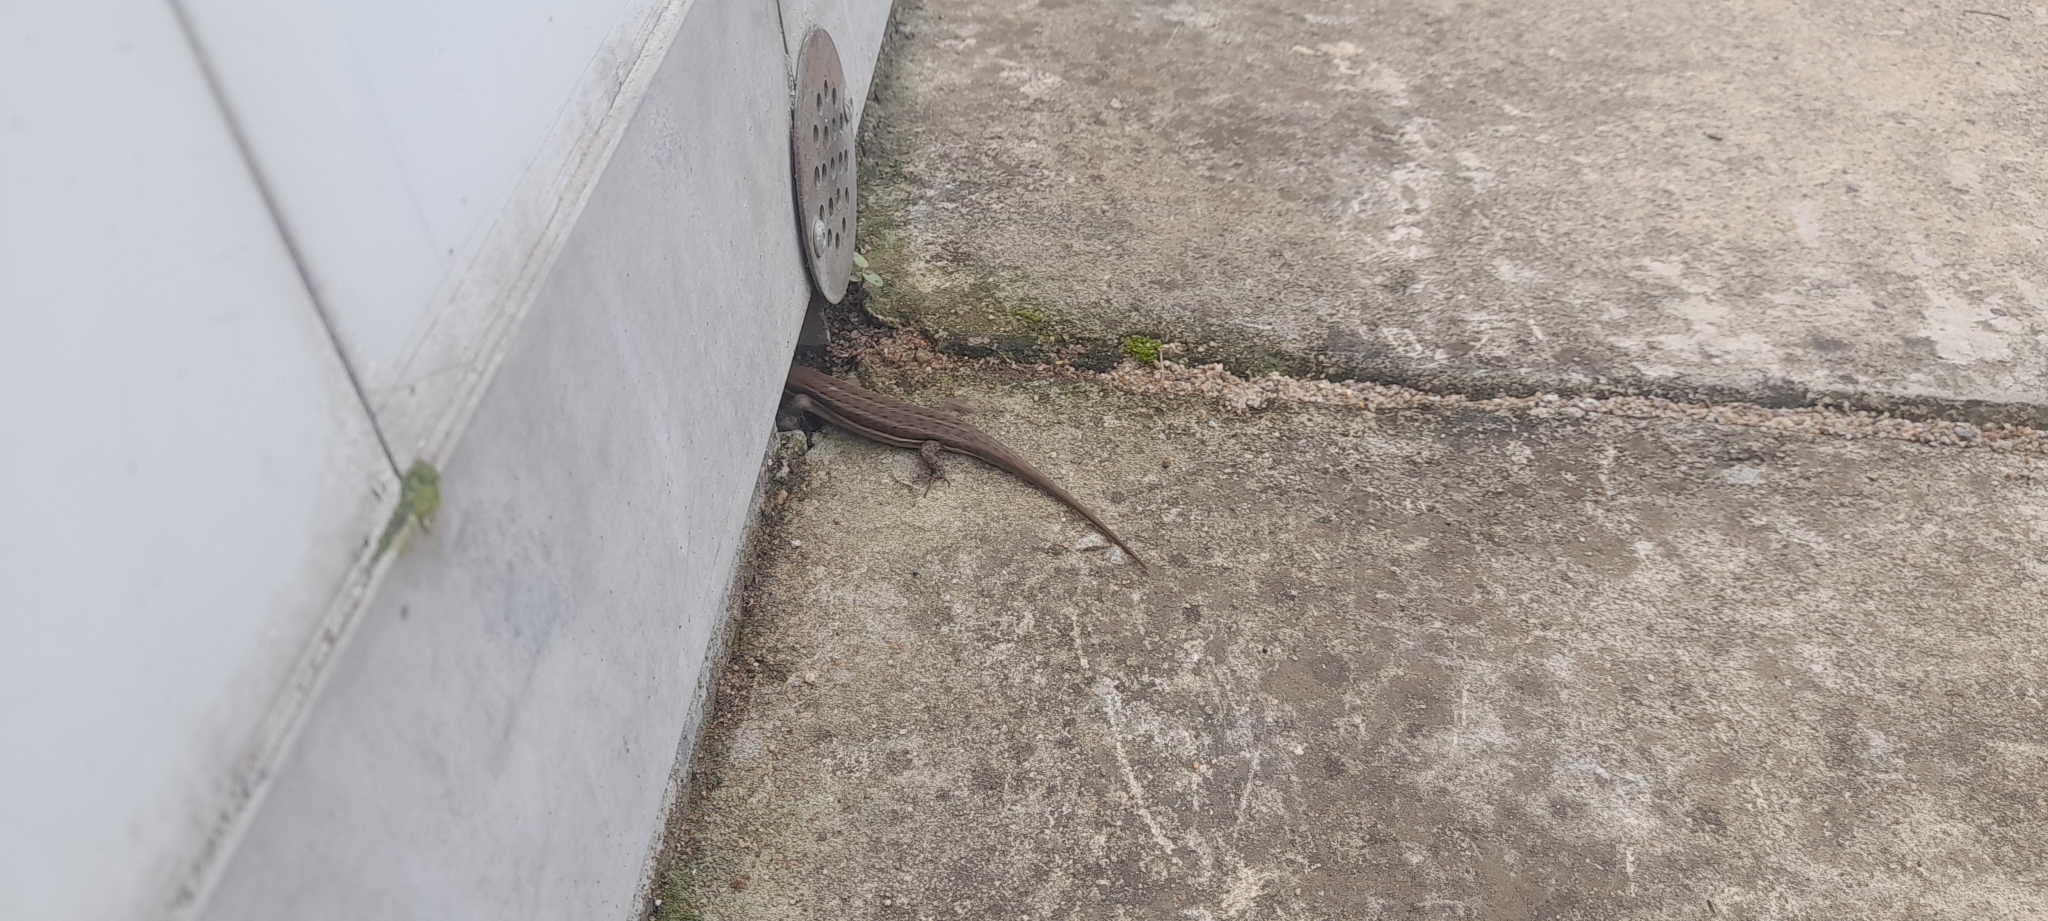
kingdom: Animalia
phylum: Chordata
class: Squamata
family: Scincidae
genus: Trachylepis
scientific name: Trachylepis varia
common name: Eastern variable skink
